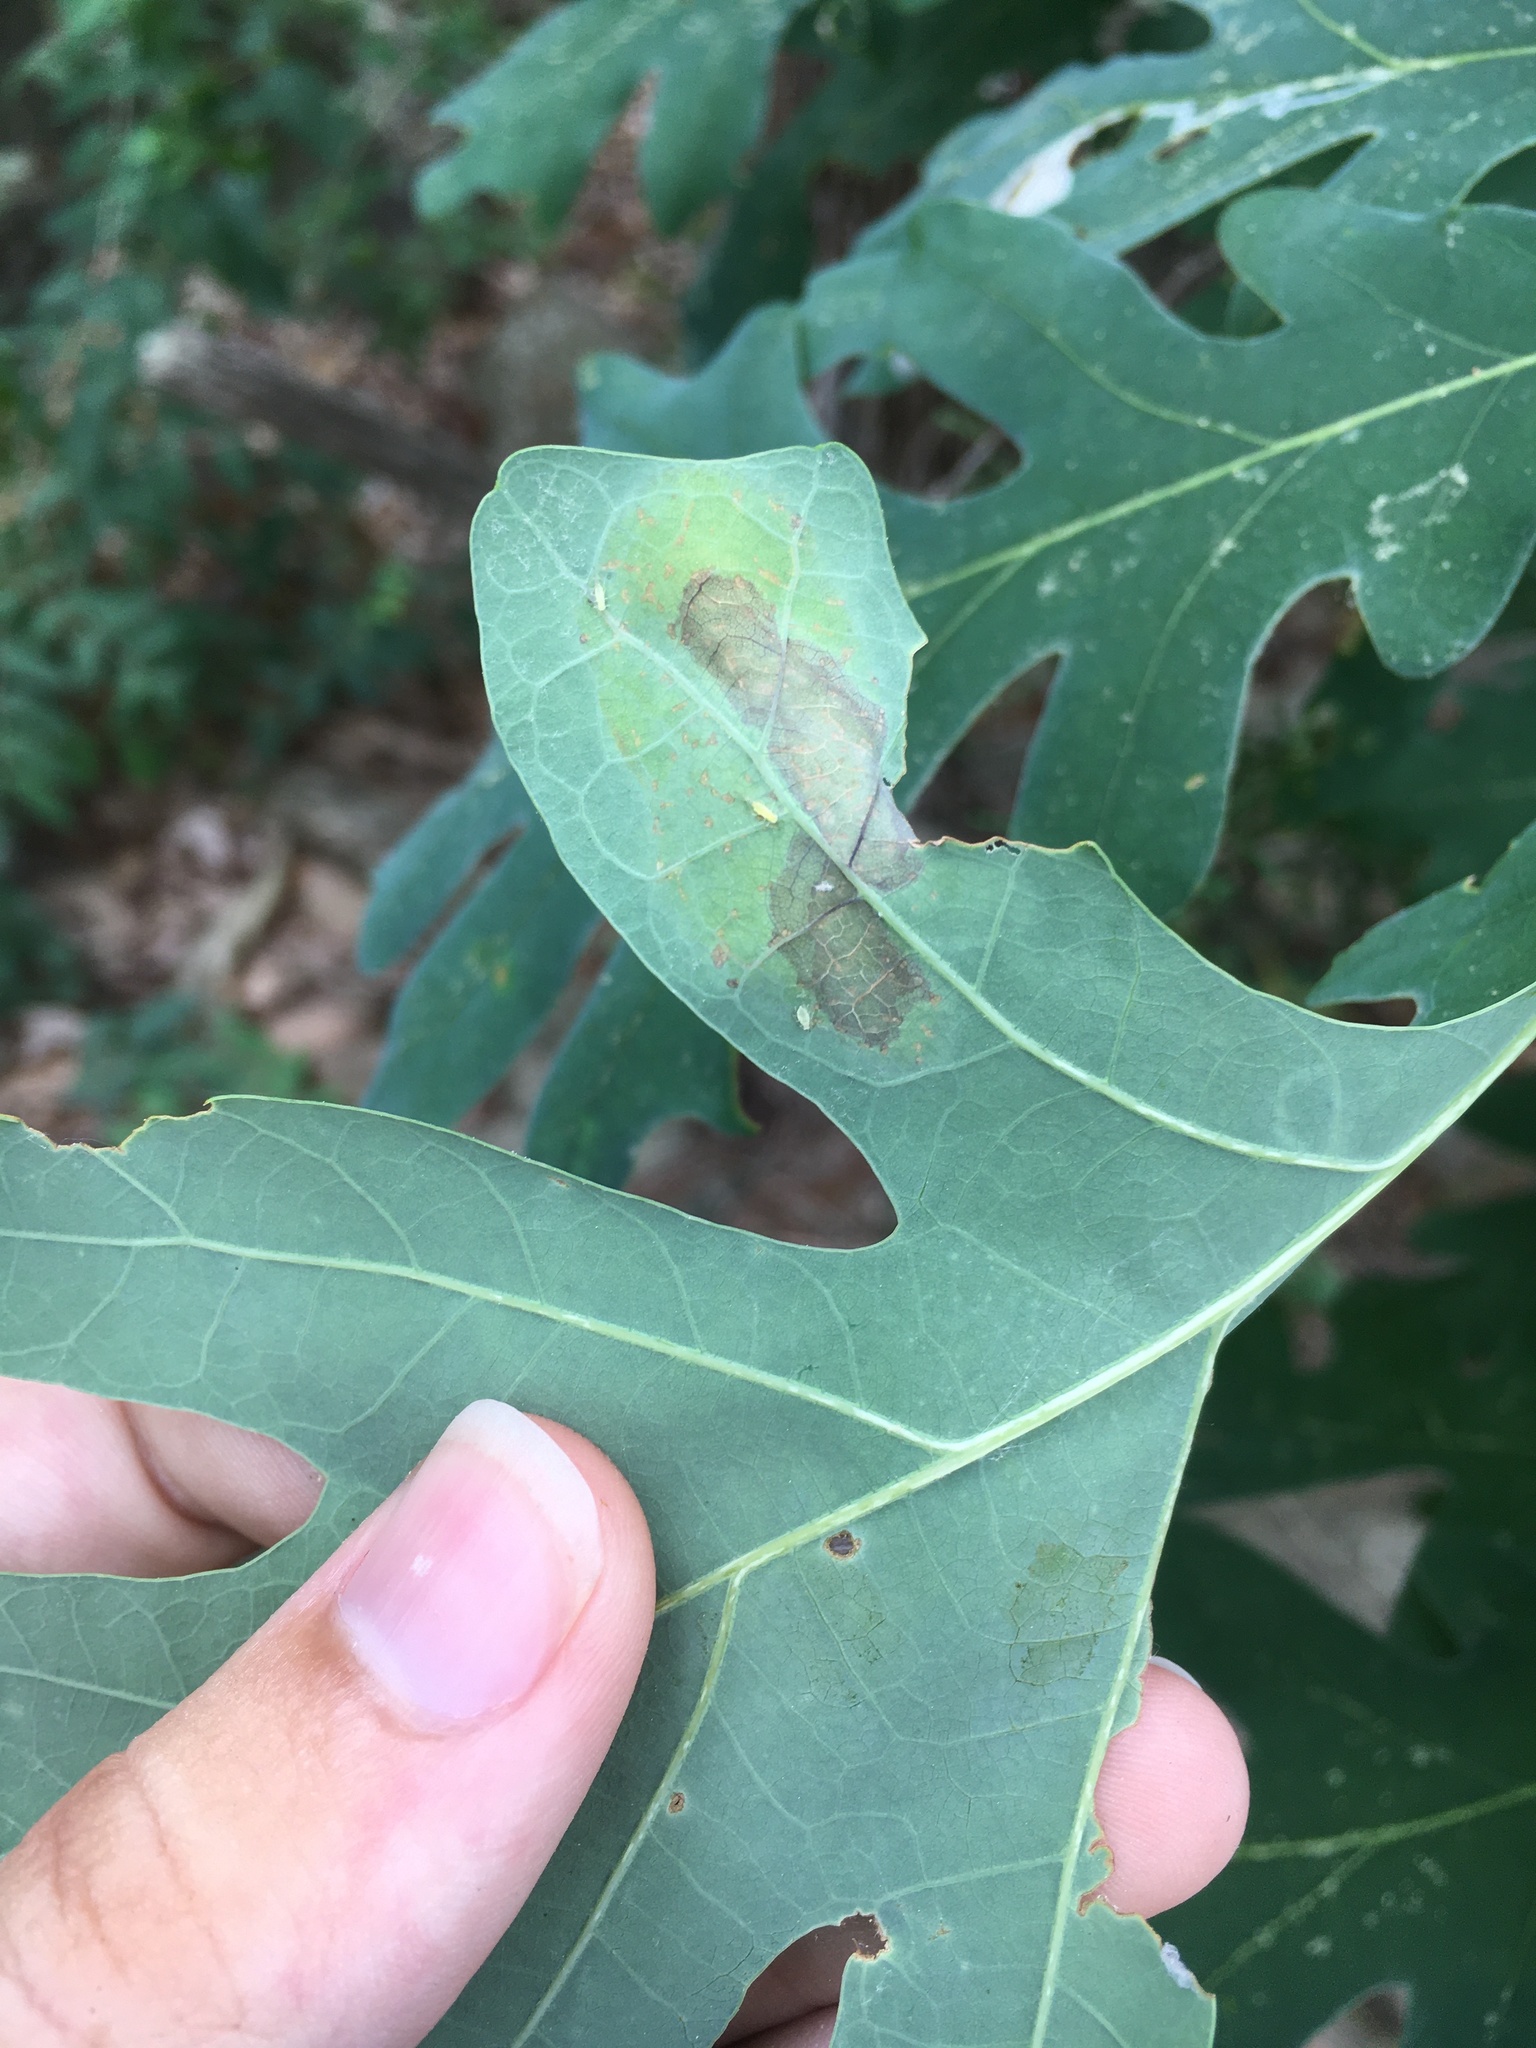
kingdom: Animalia
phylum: Arthropoda
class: Insecta
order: Lepidoptera
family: Gracillariidae
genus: Cryptolectica
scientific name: Cryptolectica
